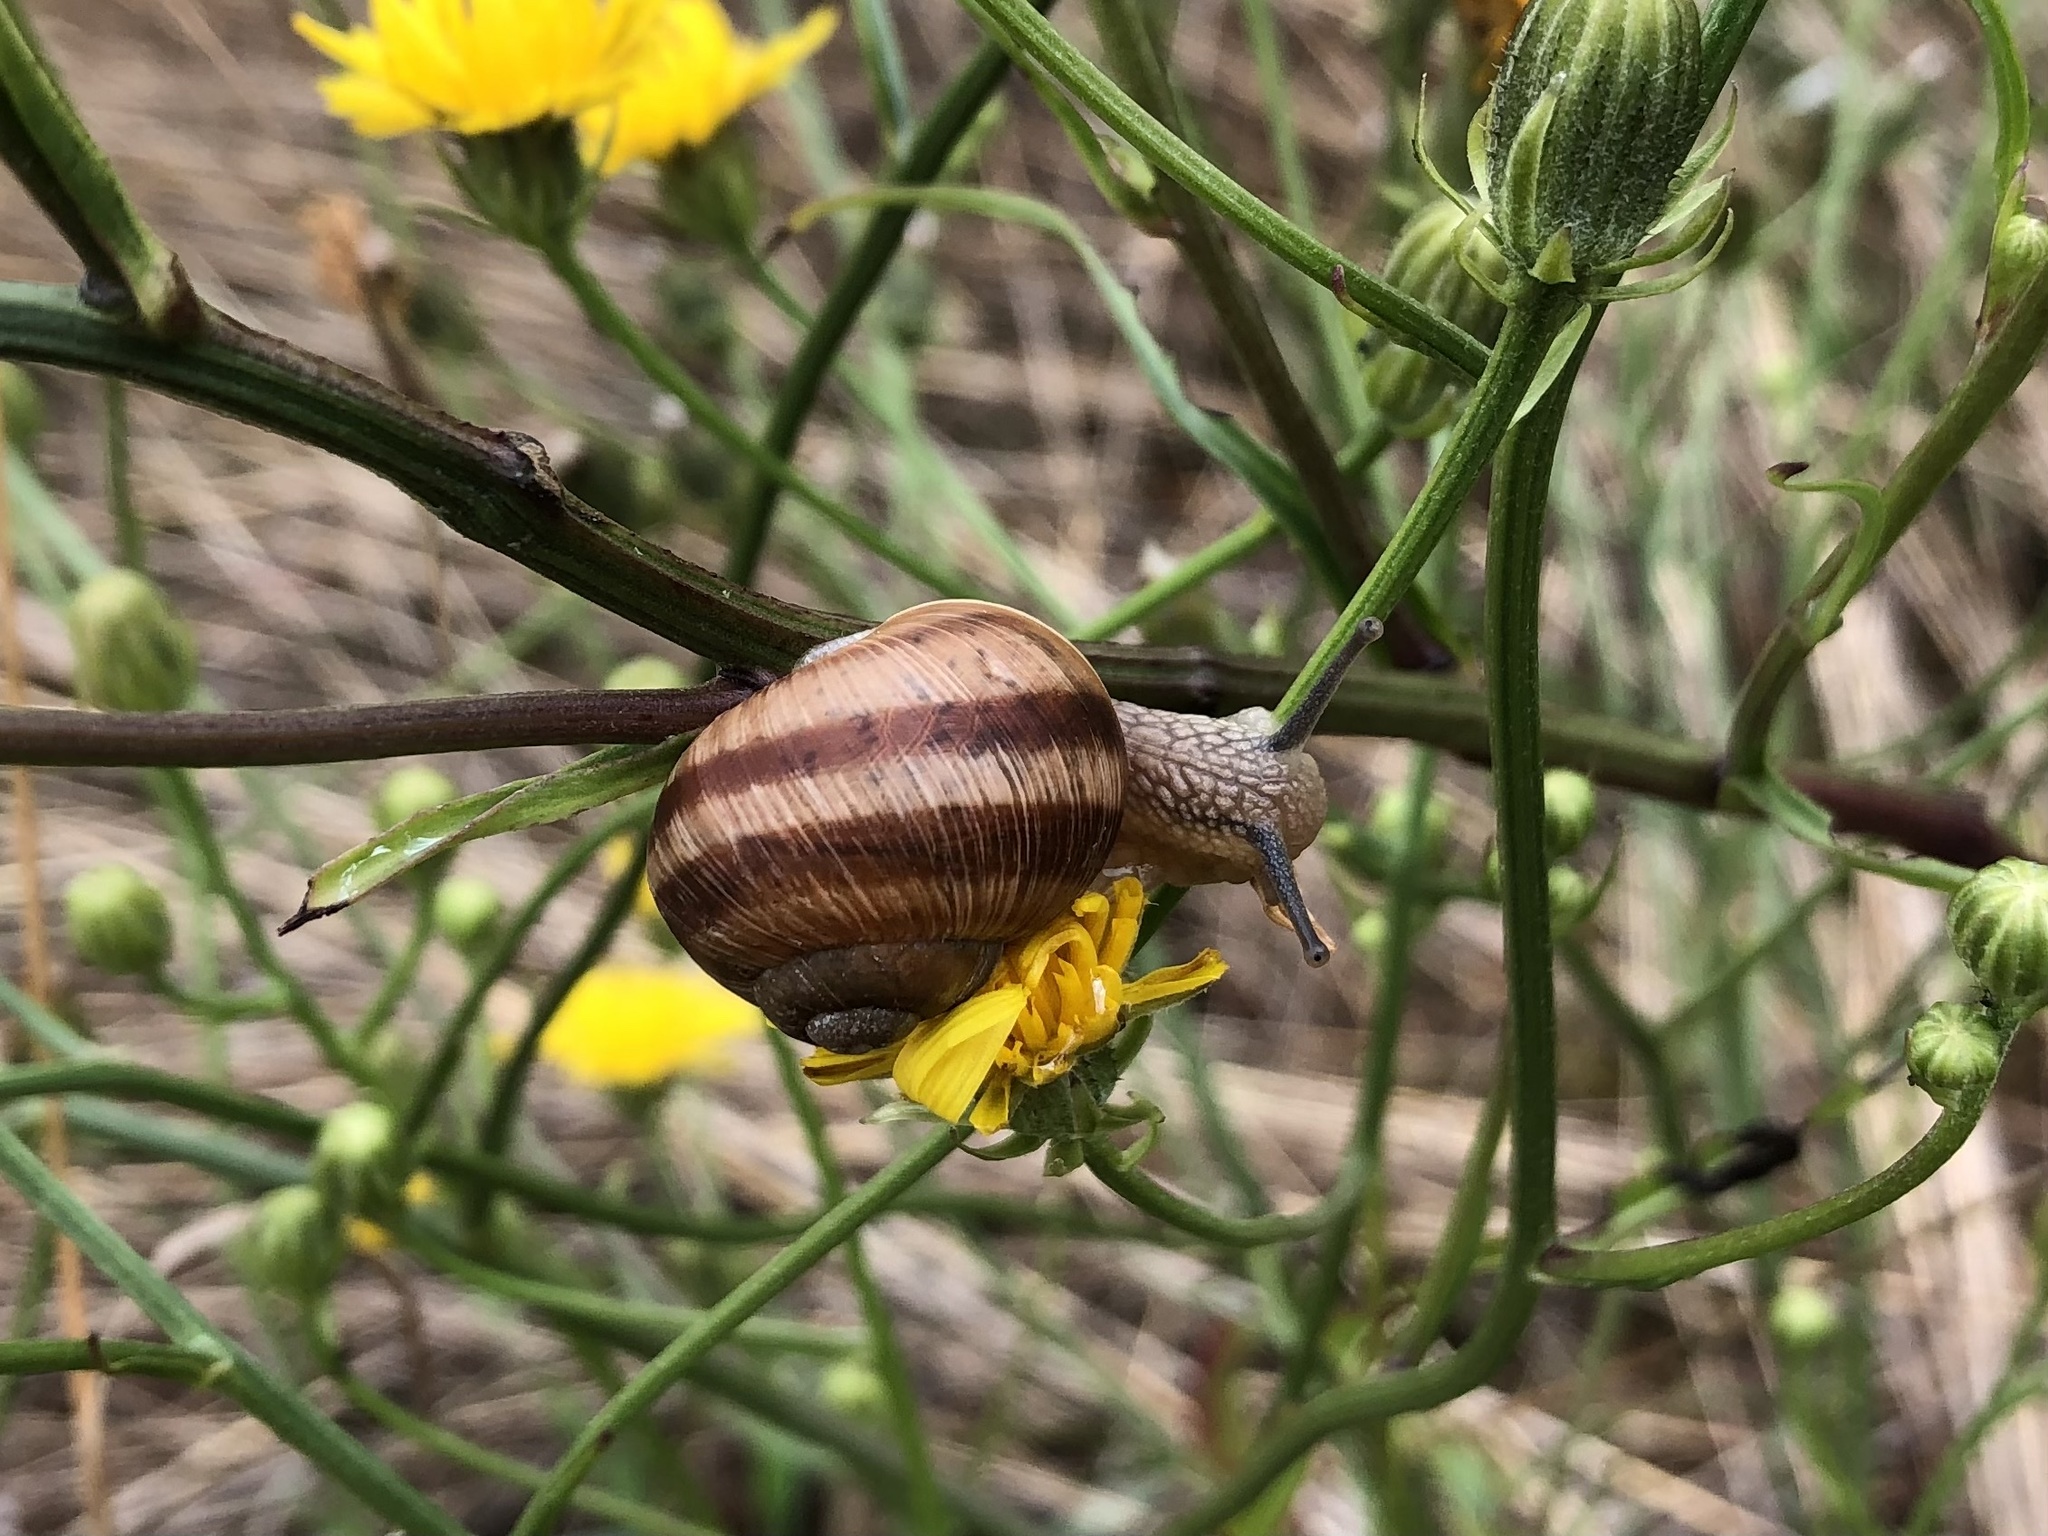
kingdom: Animalia
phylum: Mollusca
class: Gastropoda
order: Stylommatophora
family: Helicidae
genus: Helix
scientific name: Helix pomatia
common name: Roman snail
